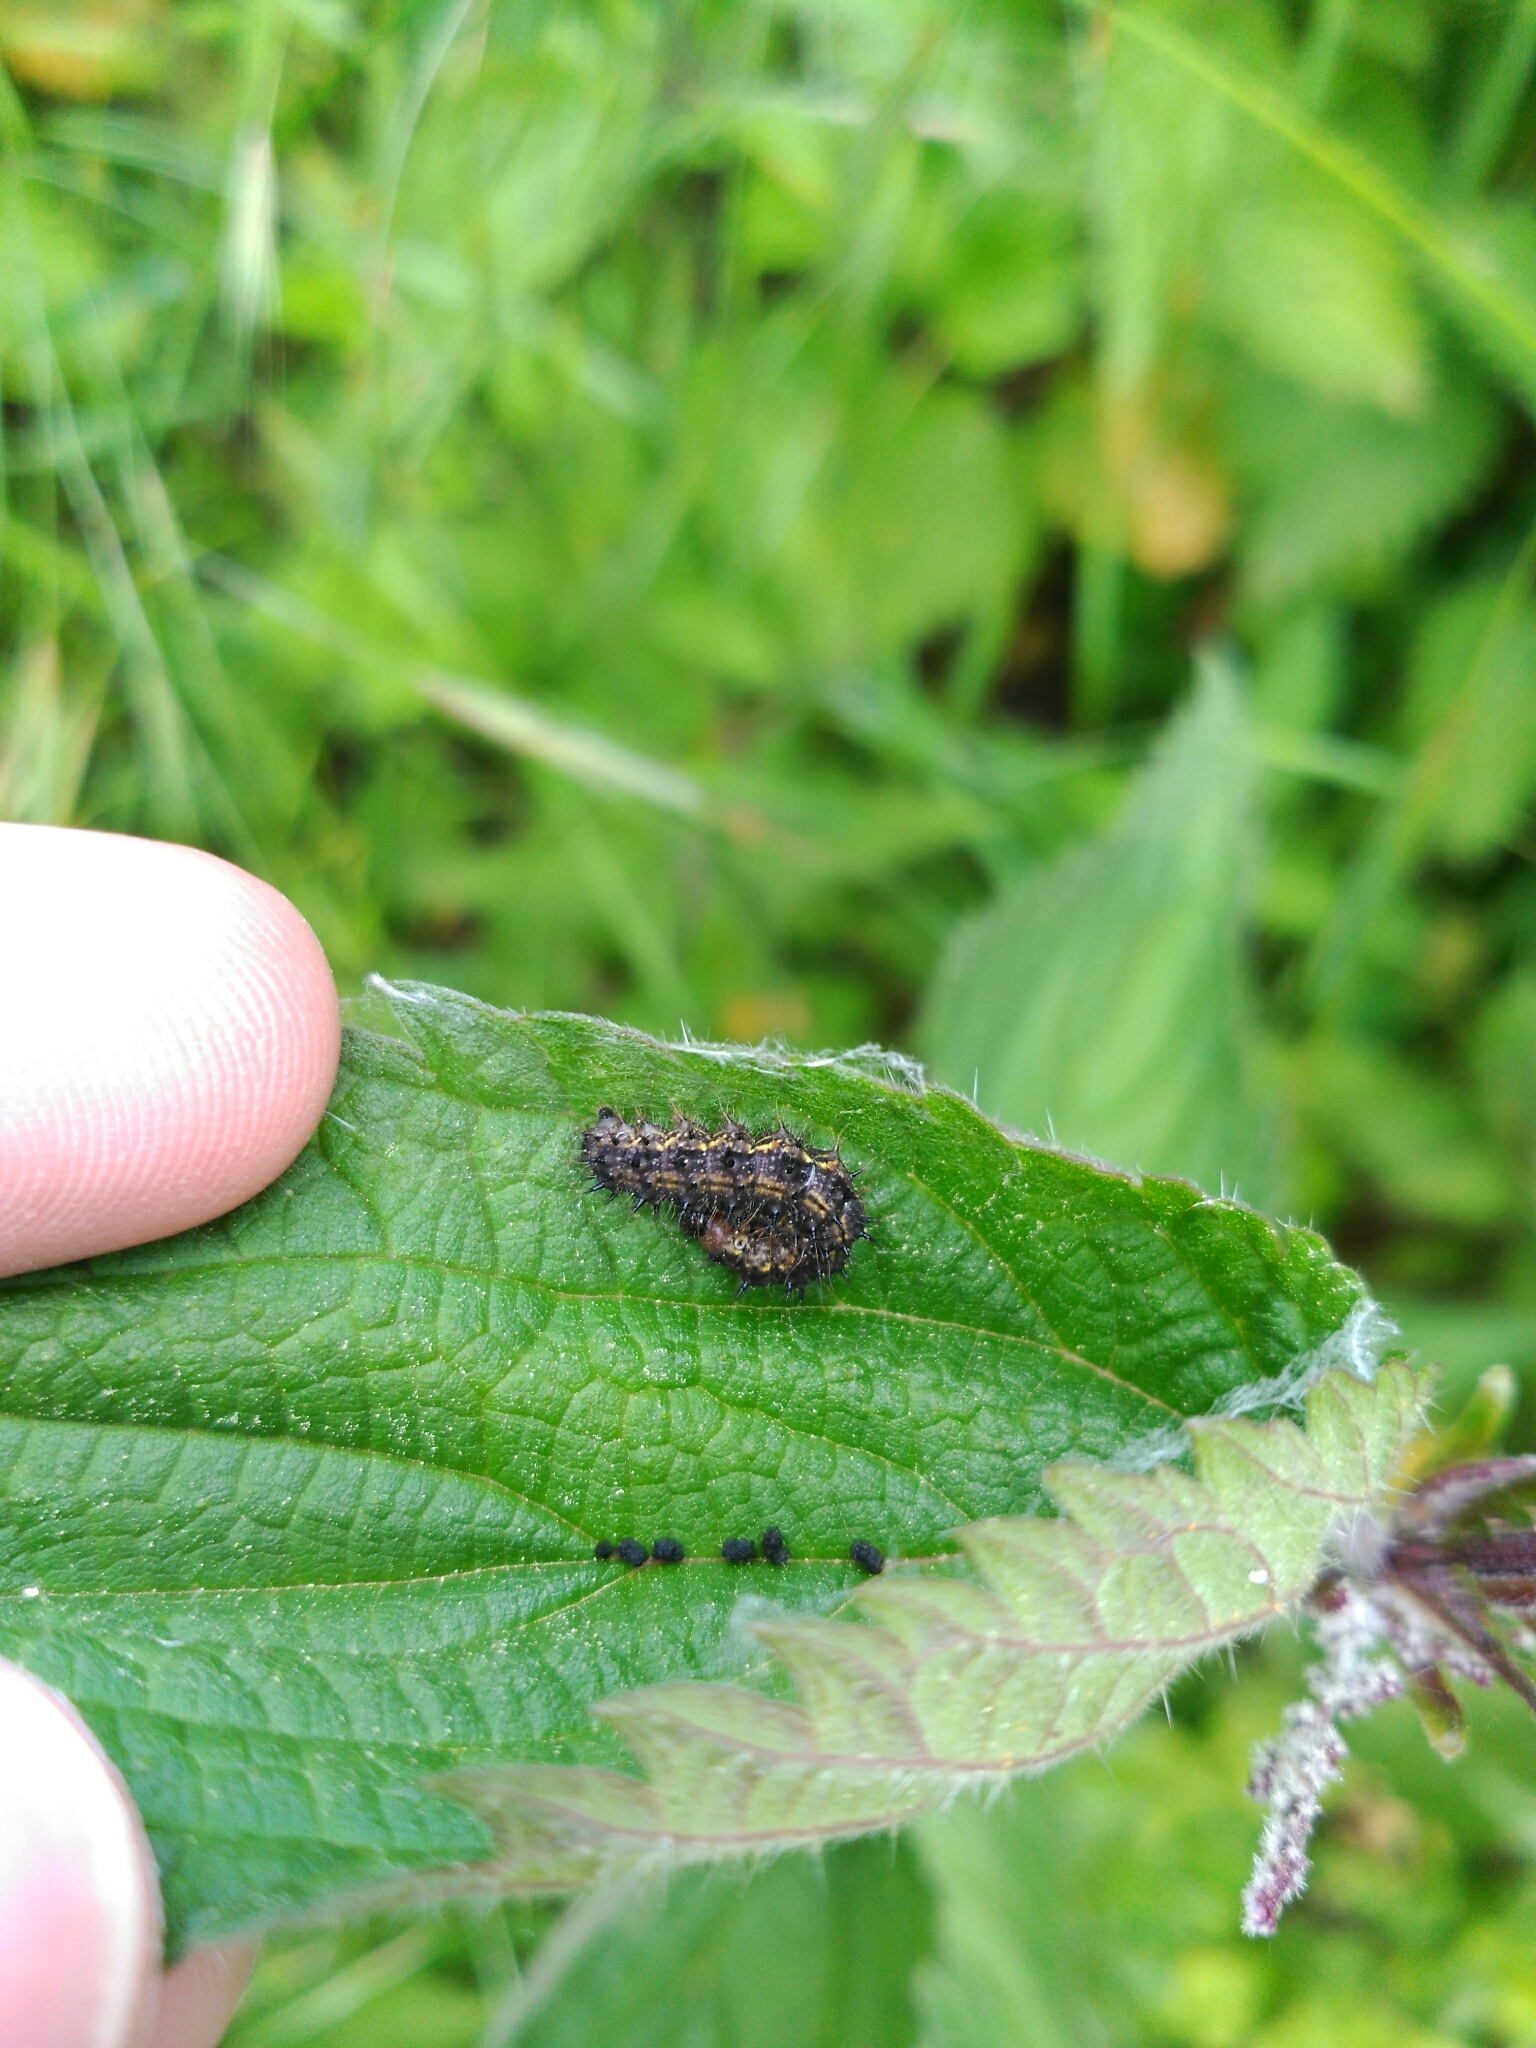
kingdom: Animalia
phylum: Arthropoda
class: Insecta
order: Lepidoptera
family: Nymphalidae
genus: Aglais
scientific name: Aglais urticae
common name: Small tortoiseshell
